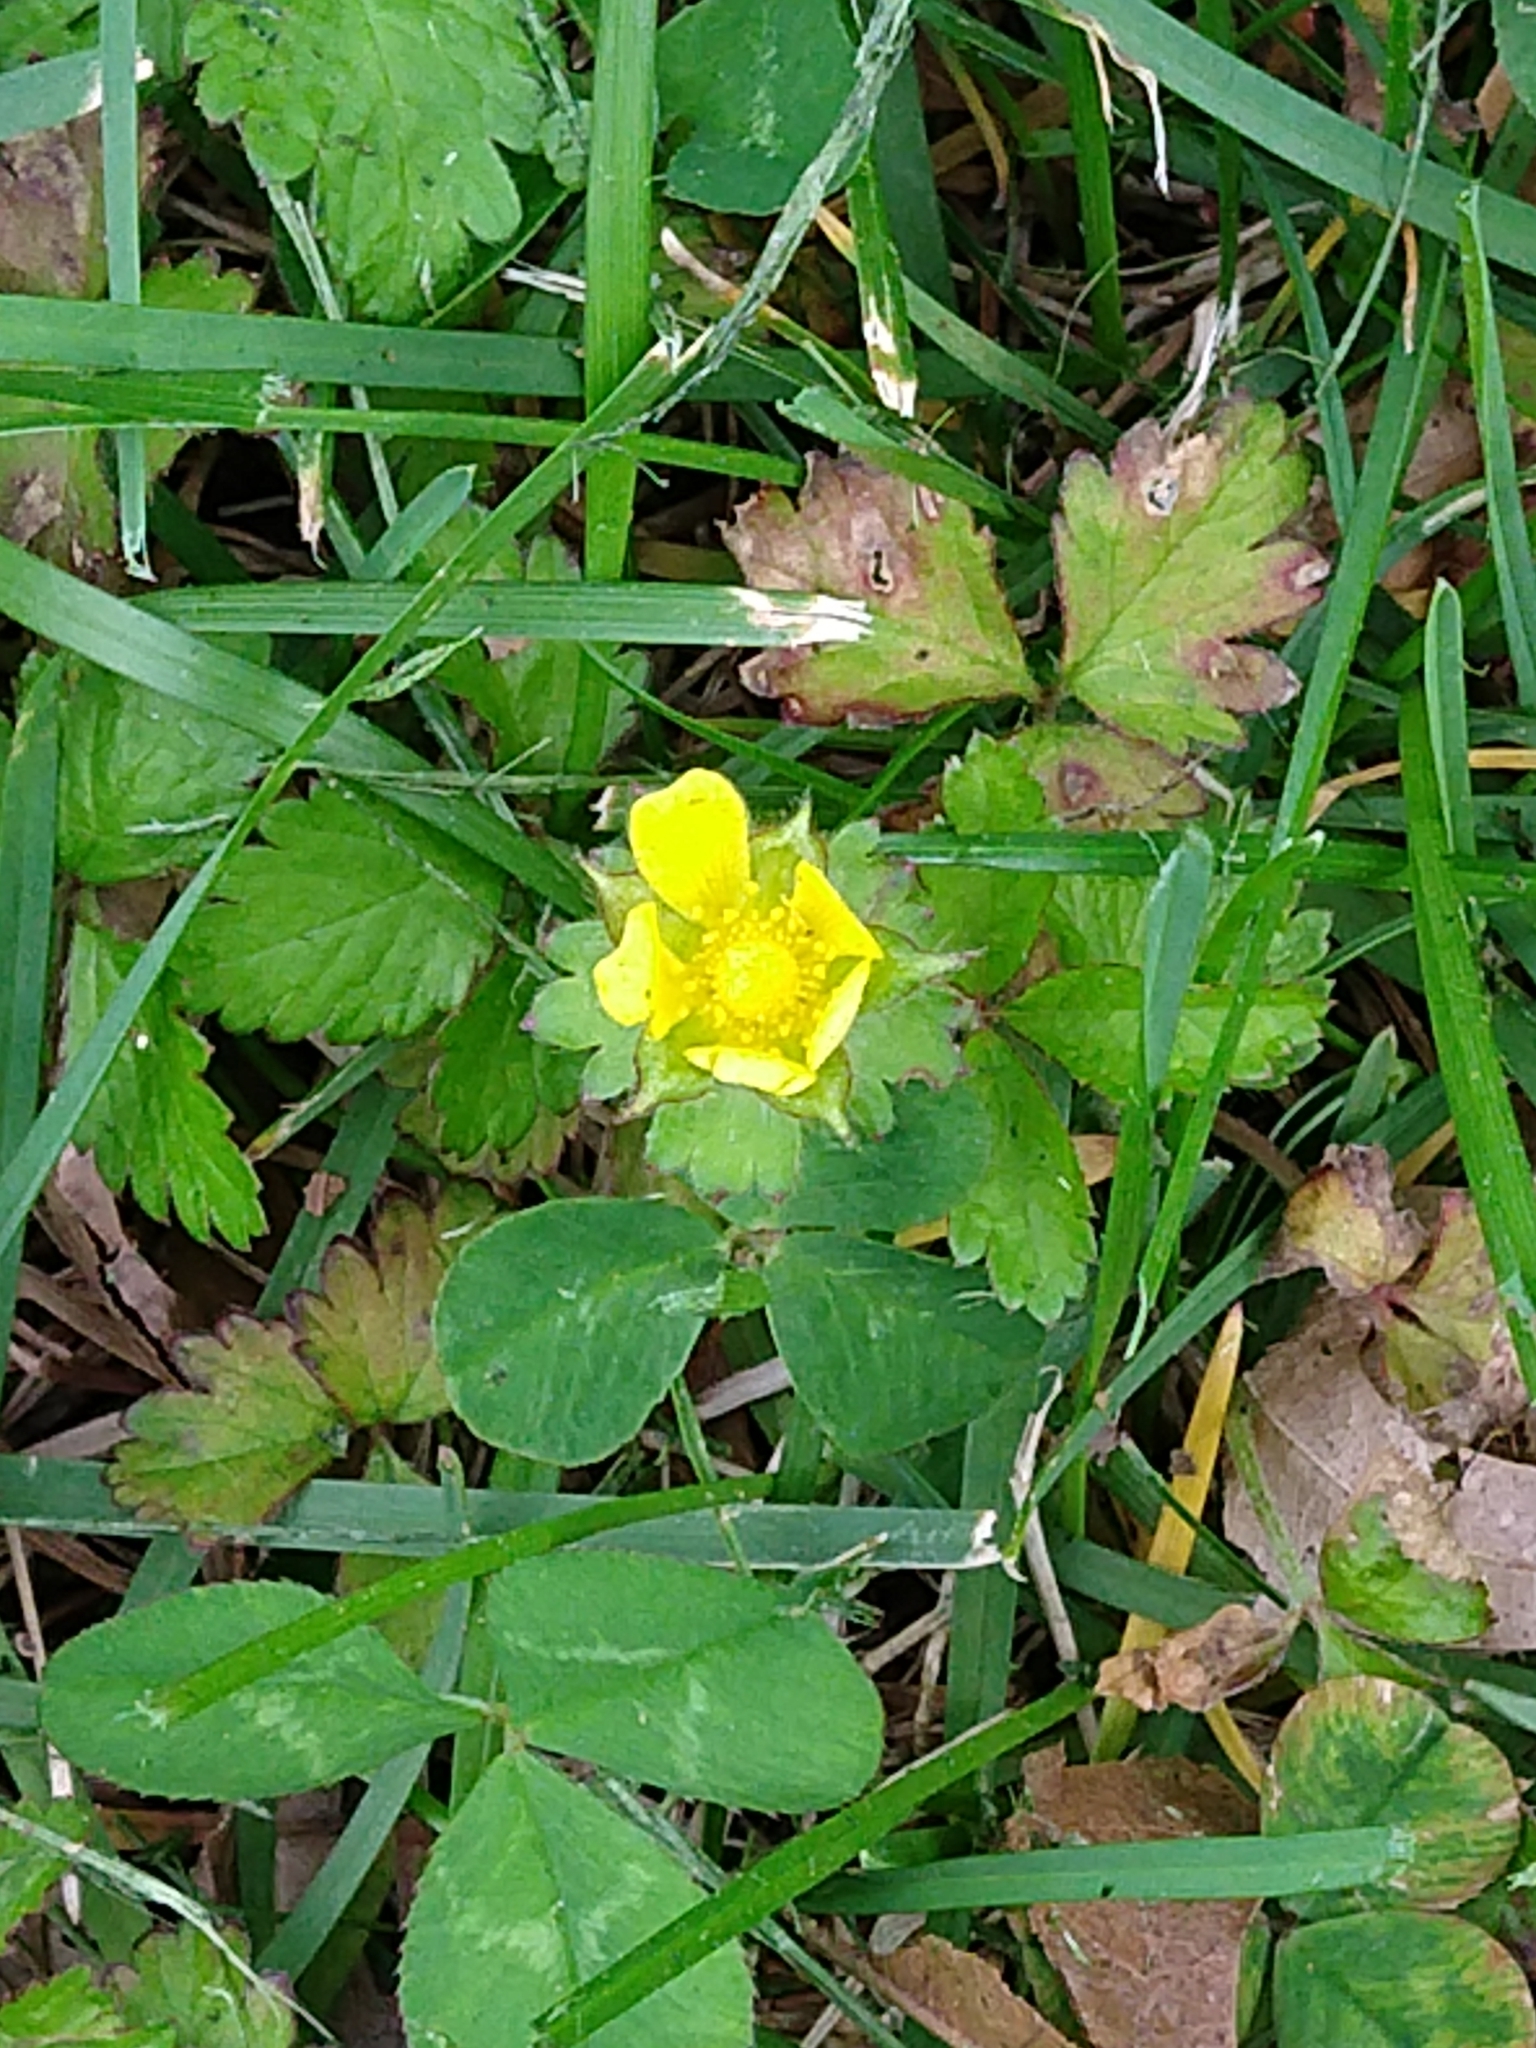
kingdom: Plantae
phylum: Tracheophyta
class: Magnoliopsida
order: Rosales
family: Rosaceae
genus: Potentilla
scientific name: Potentilla indica
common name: Yellow-flowered strawberry
